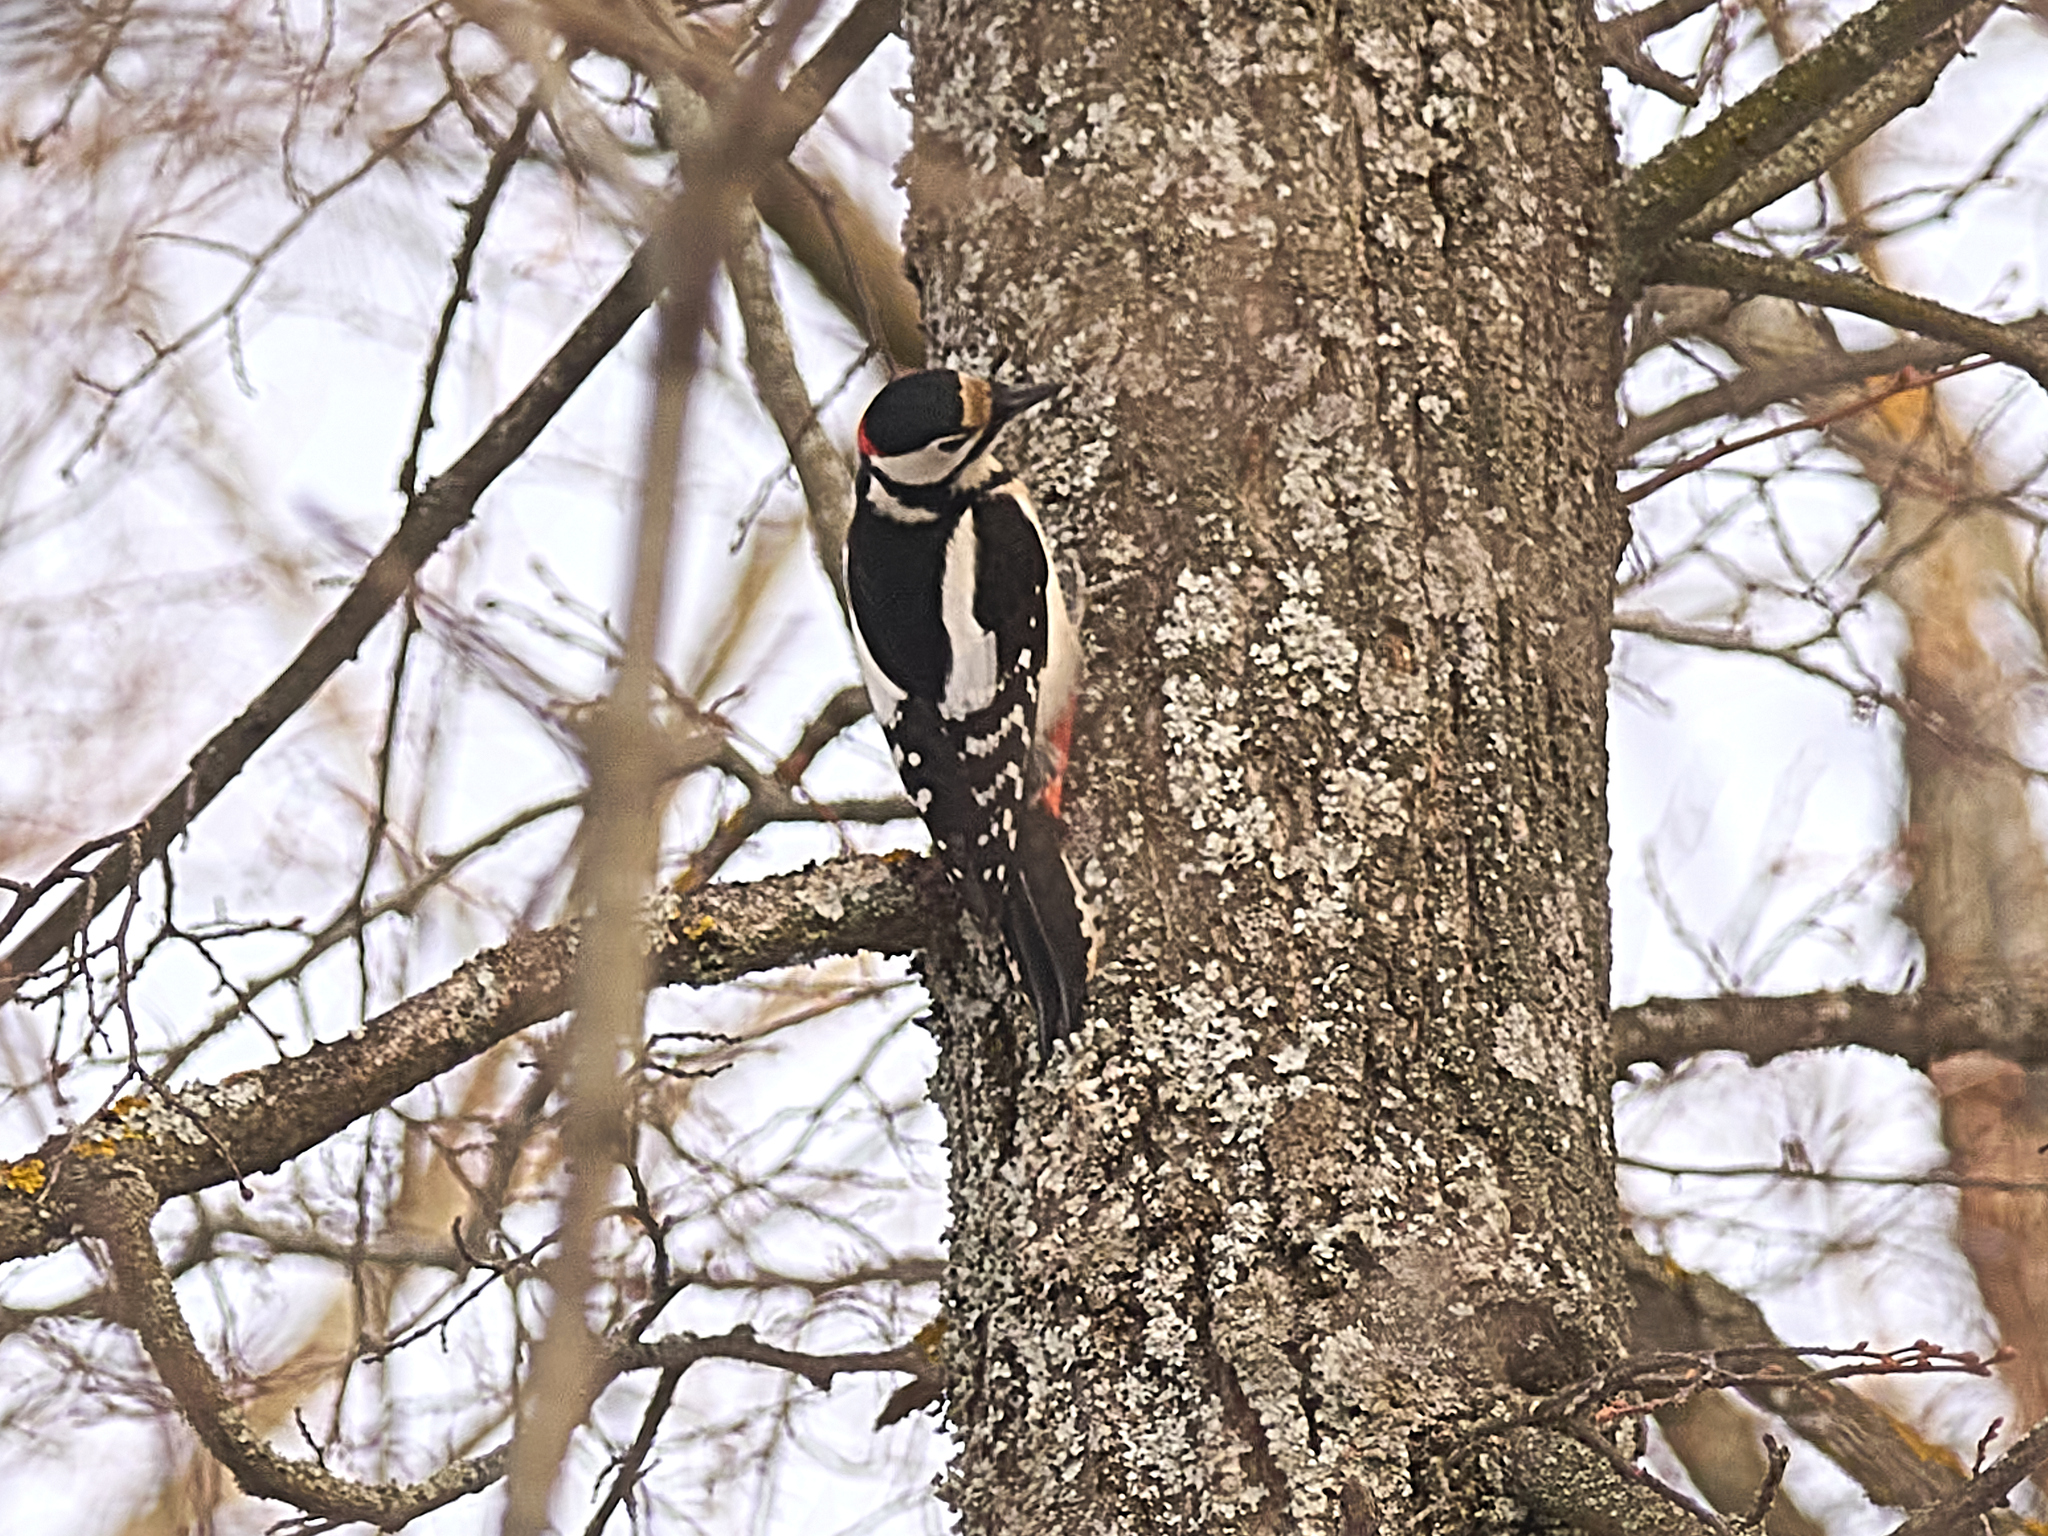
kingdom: Animalia
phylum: Chordata
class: Aves
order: Piciformes
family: Picidae
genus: Dendrocopos
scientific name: Dendrocopos major
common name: Great spotted woodpecker
